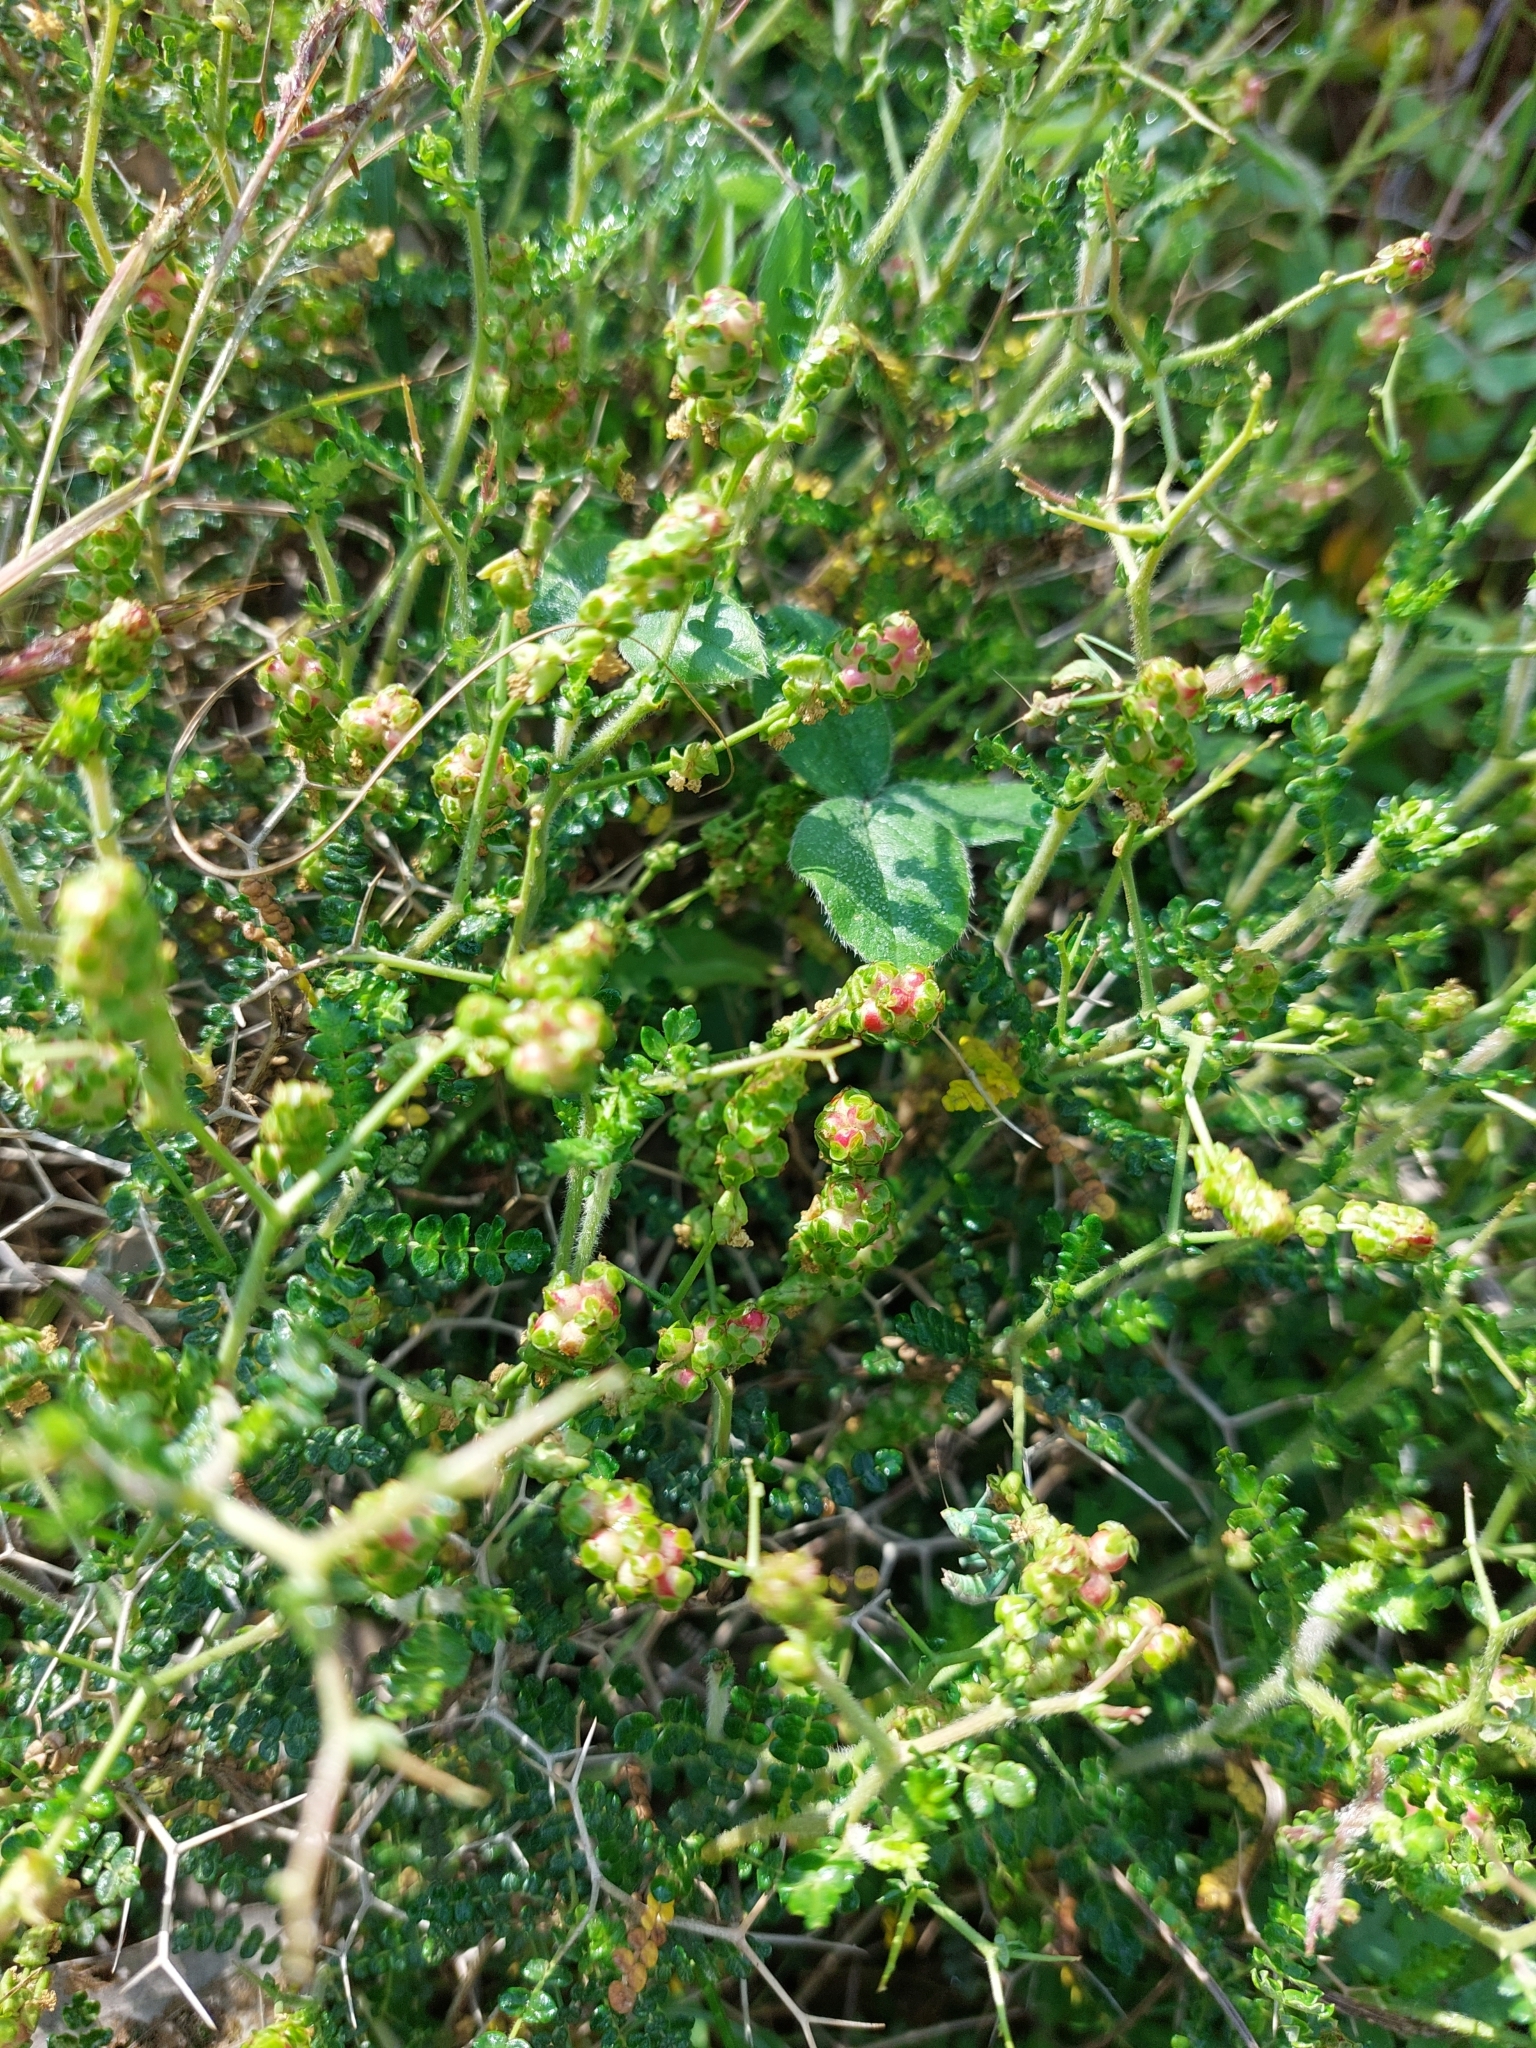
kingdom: Plantae
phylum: Tracheophyta
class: Magnoliopsida
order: Rosales
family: Rosaceae
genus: Sarcopoterium
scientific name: Sarcopoterium spinosum
